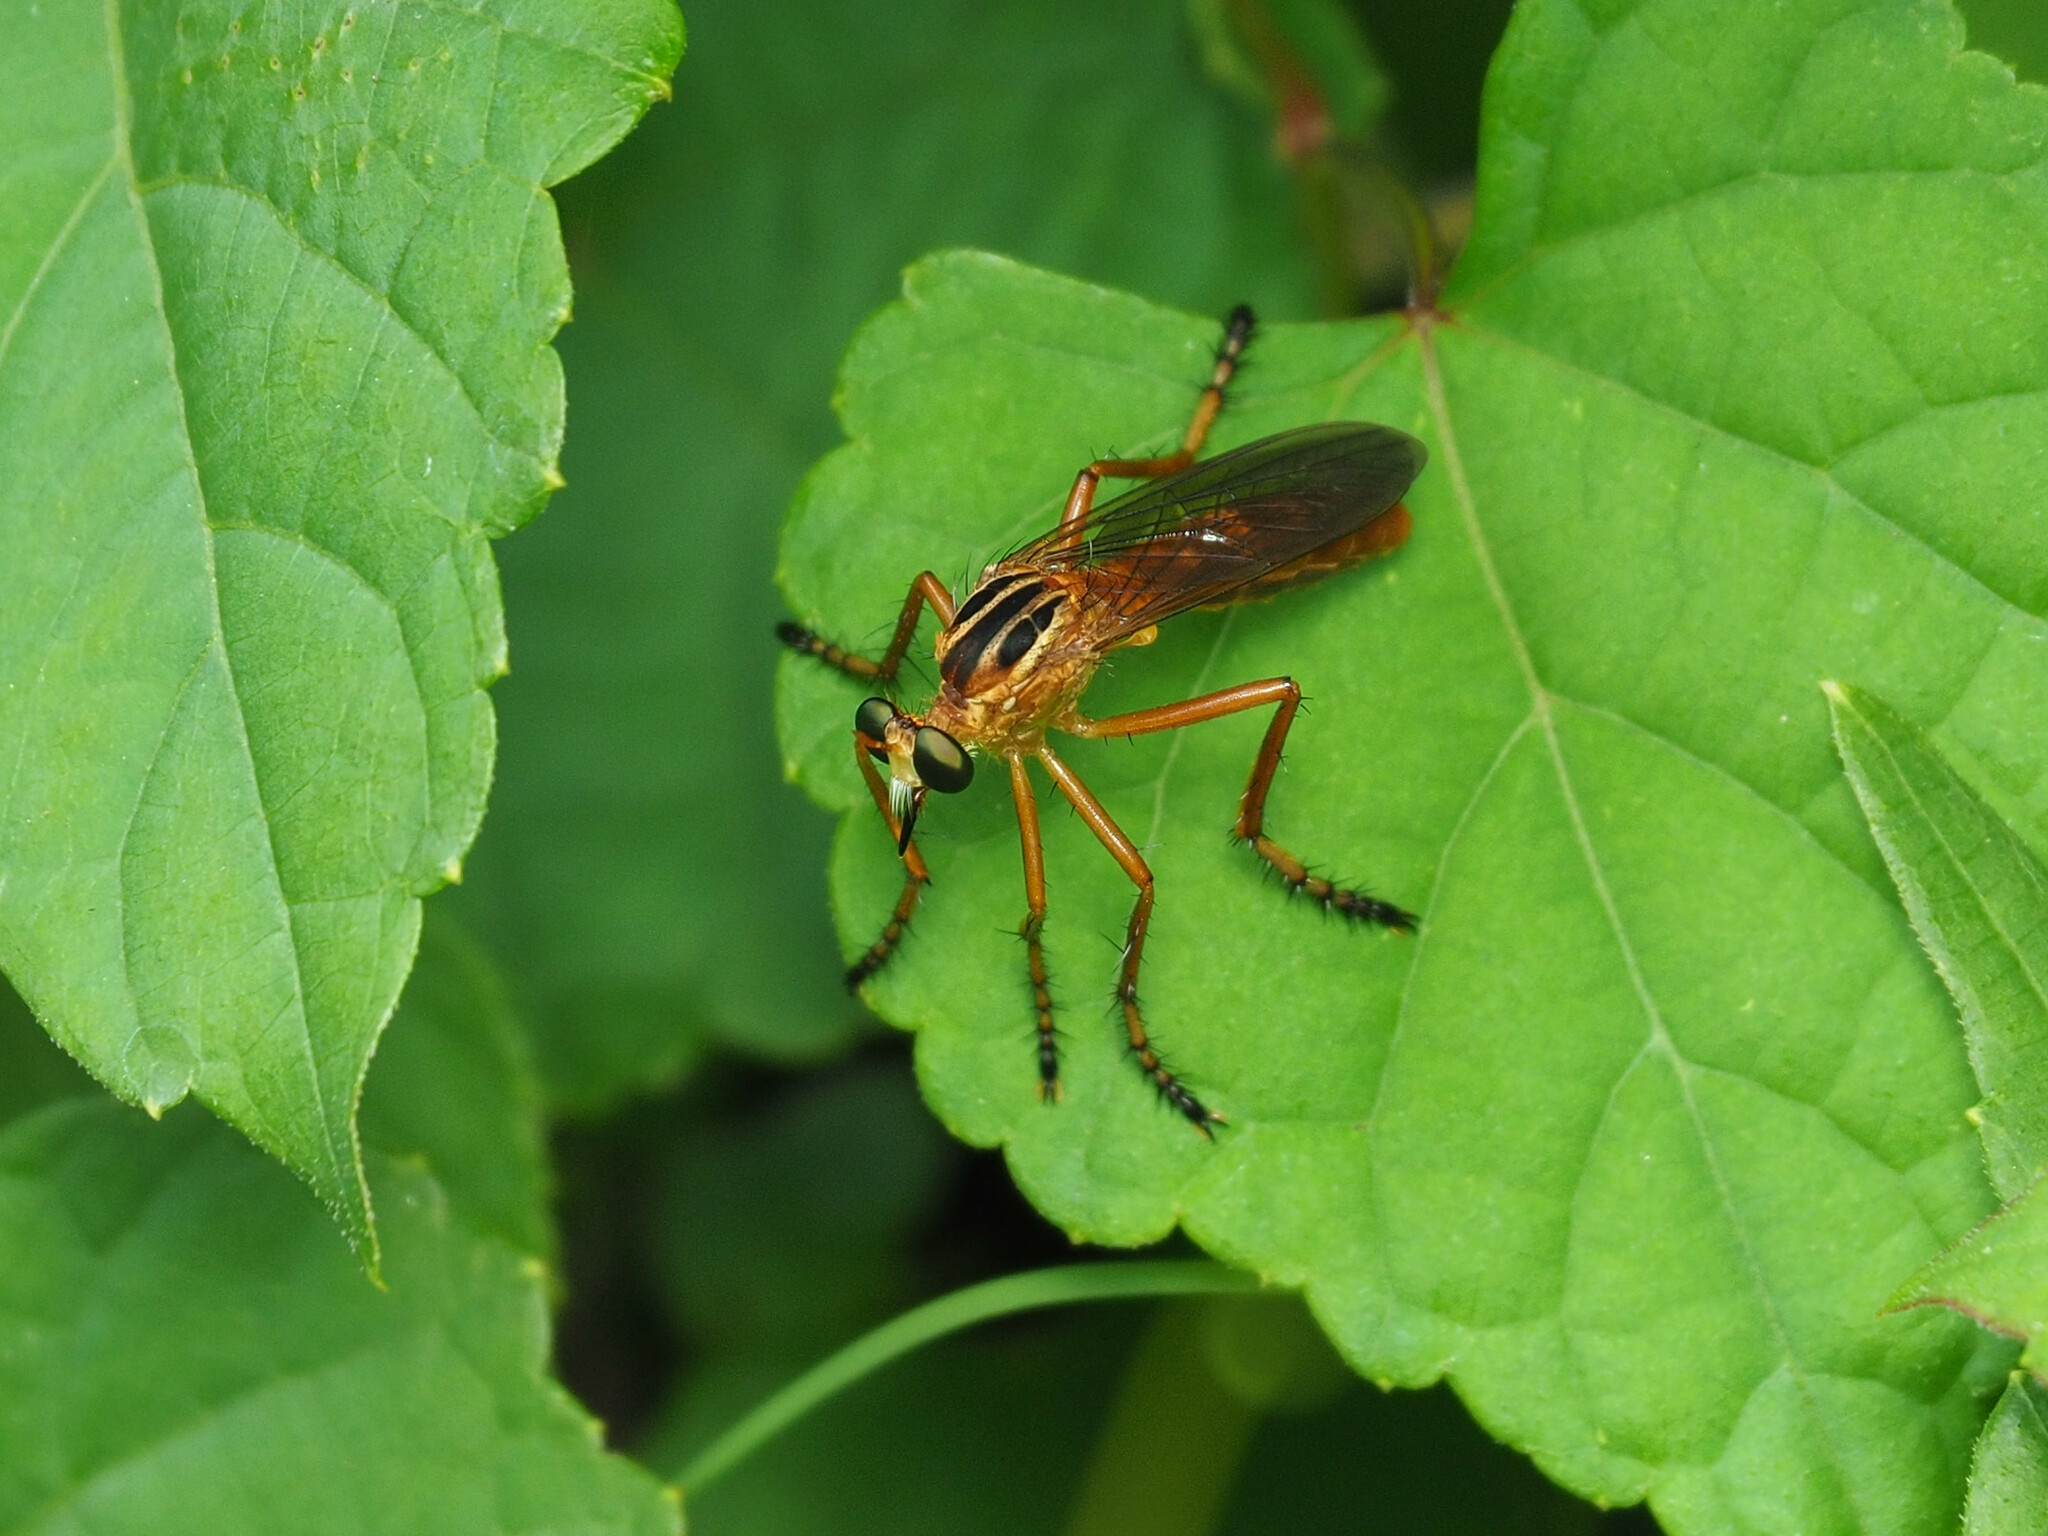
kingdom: Animalia
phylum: Arthropoda
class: Insecta
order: Diptera
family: Asilidae
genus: Diogmites
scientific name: Diogmites neoternatus
